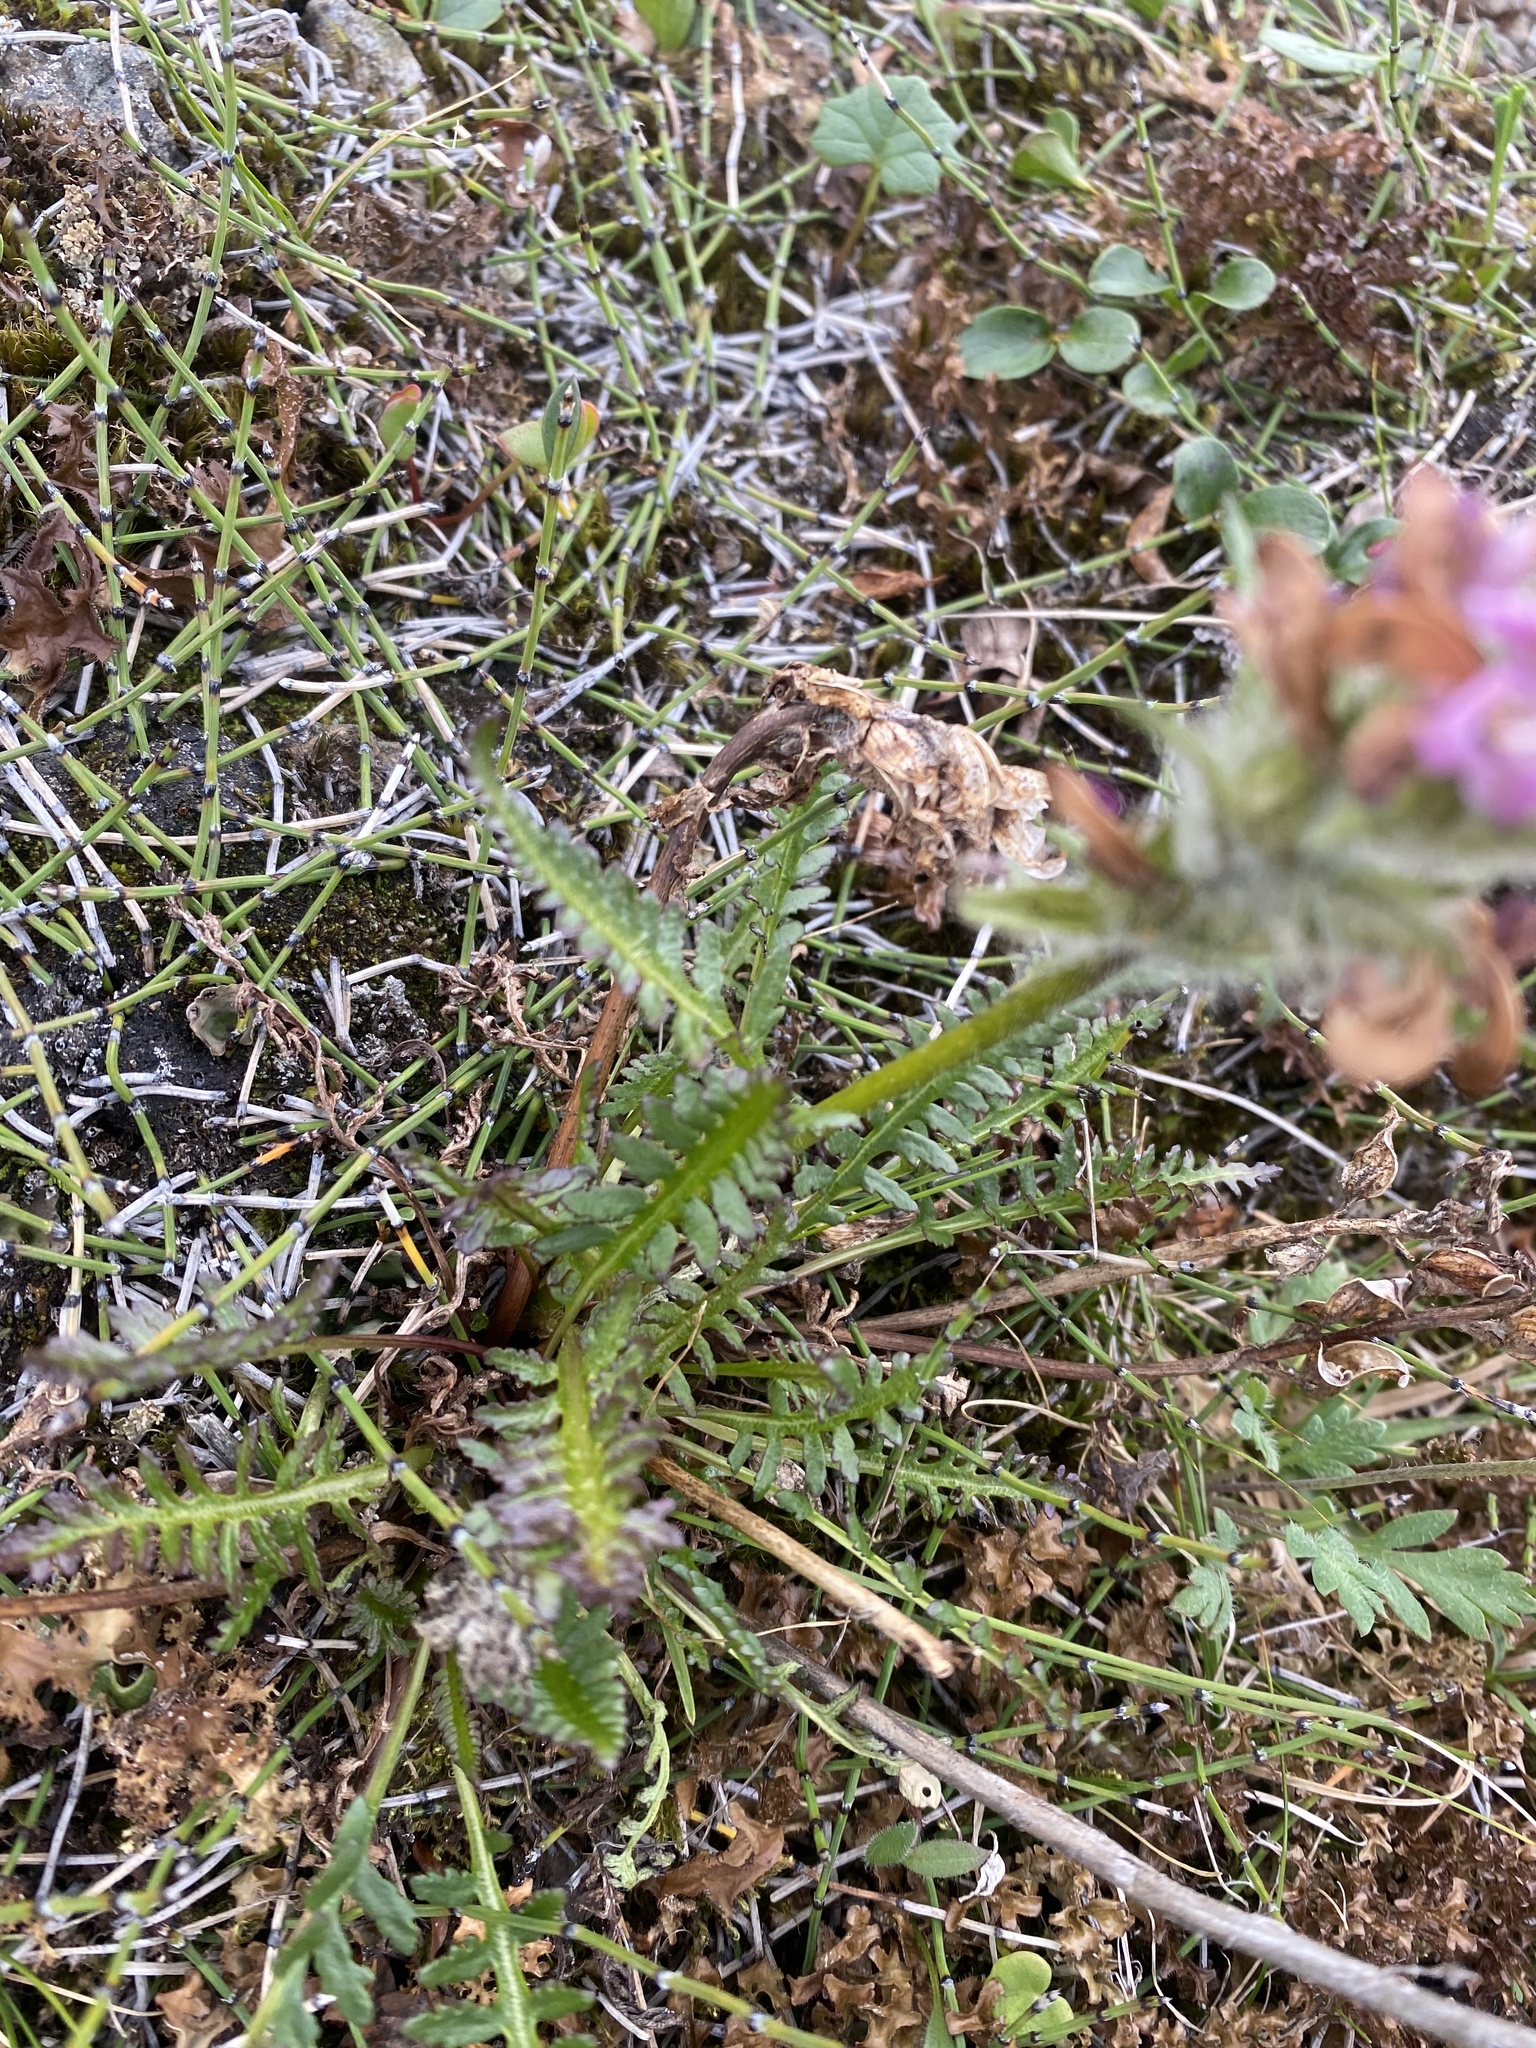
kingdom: Plantae
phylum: Tracheophyta
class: Magnoliopsida
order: Lamiales
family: Orobanchaceae
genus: Pedicularis
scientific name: Pedicularis novaiae-zemliae
